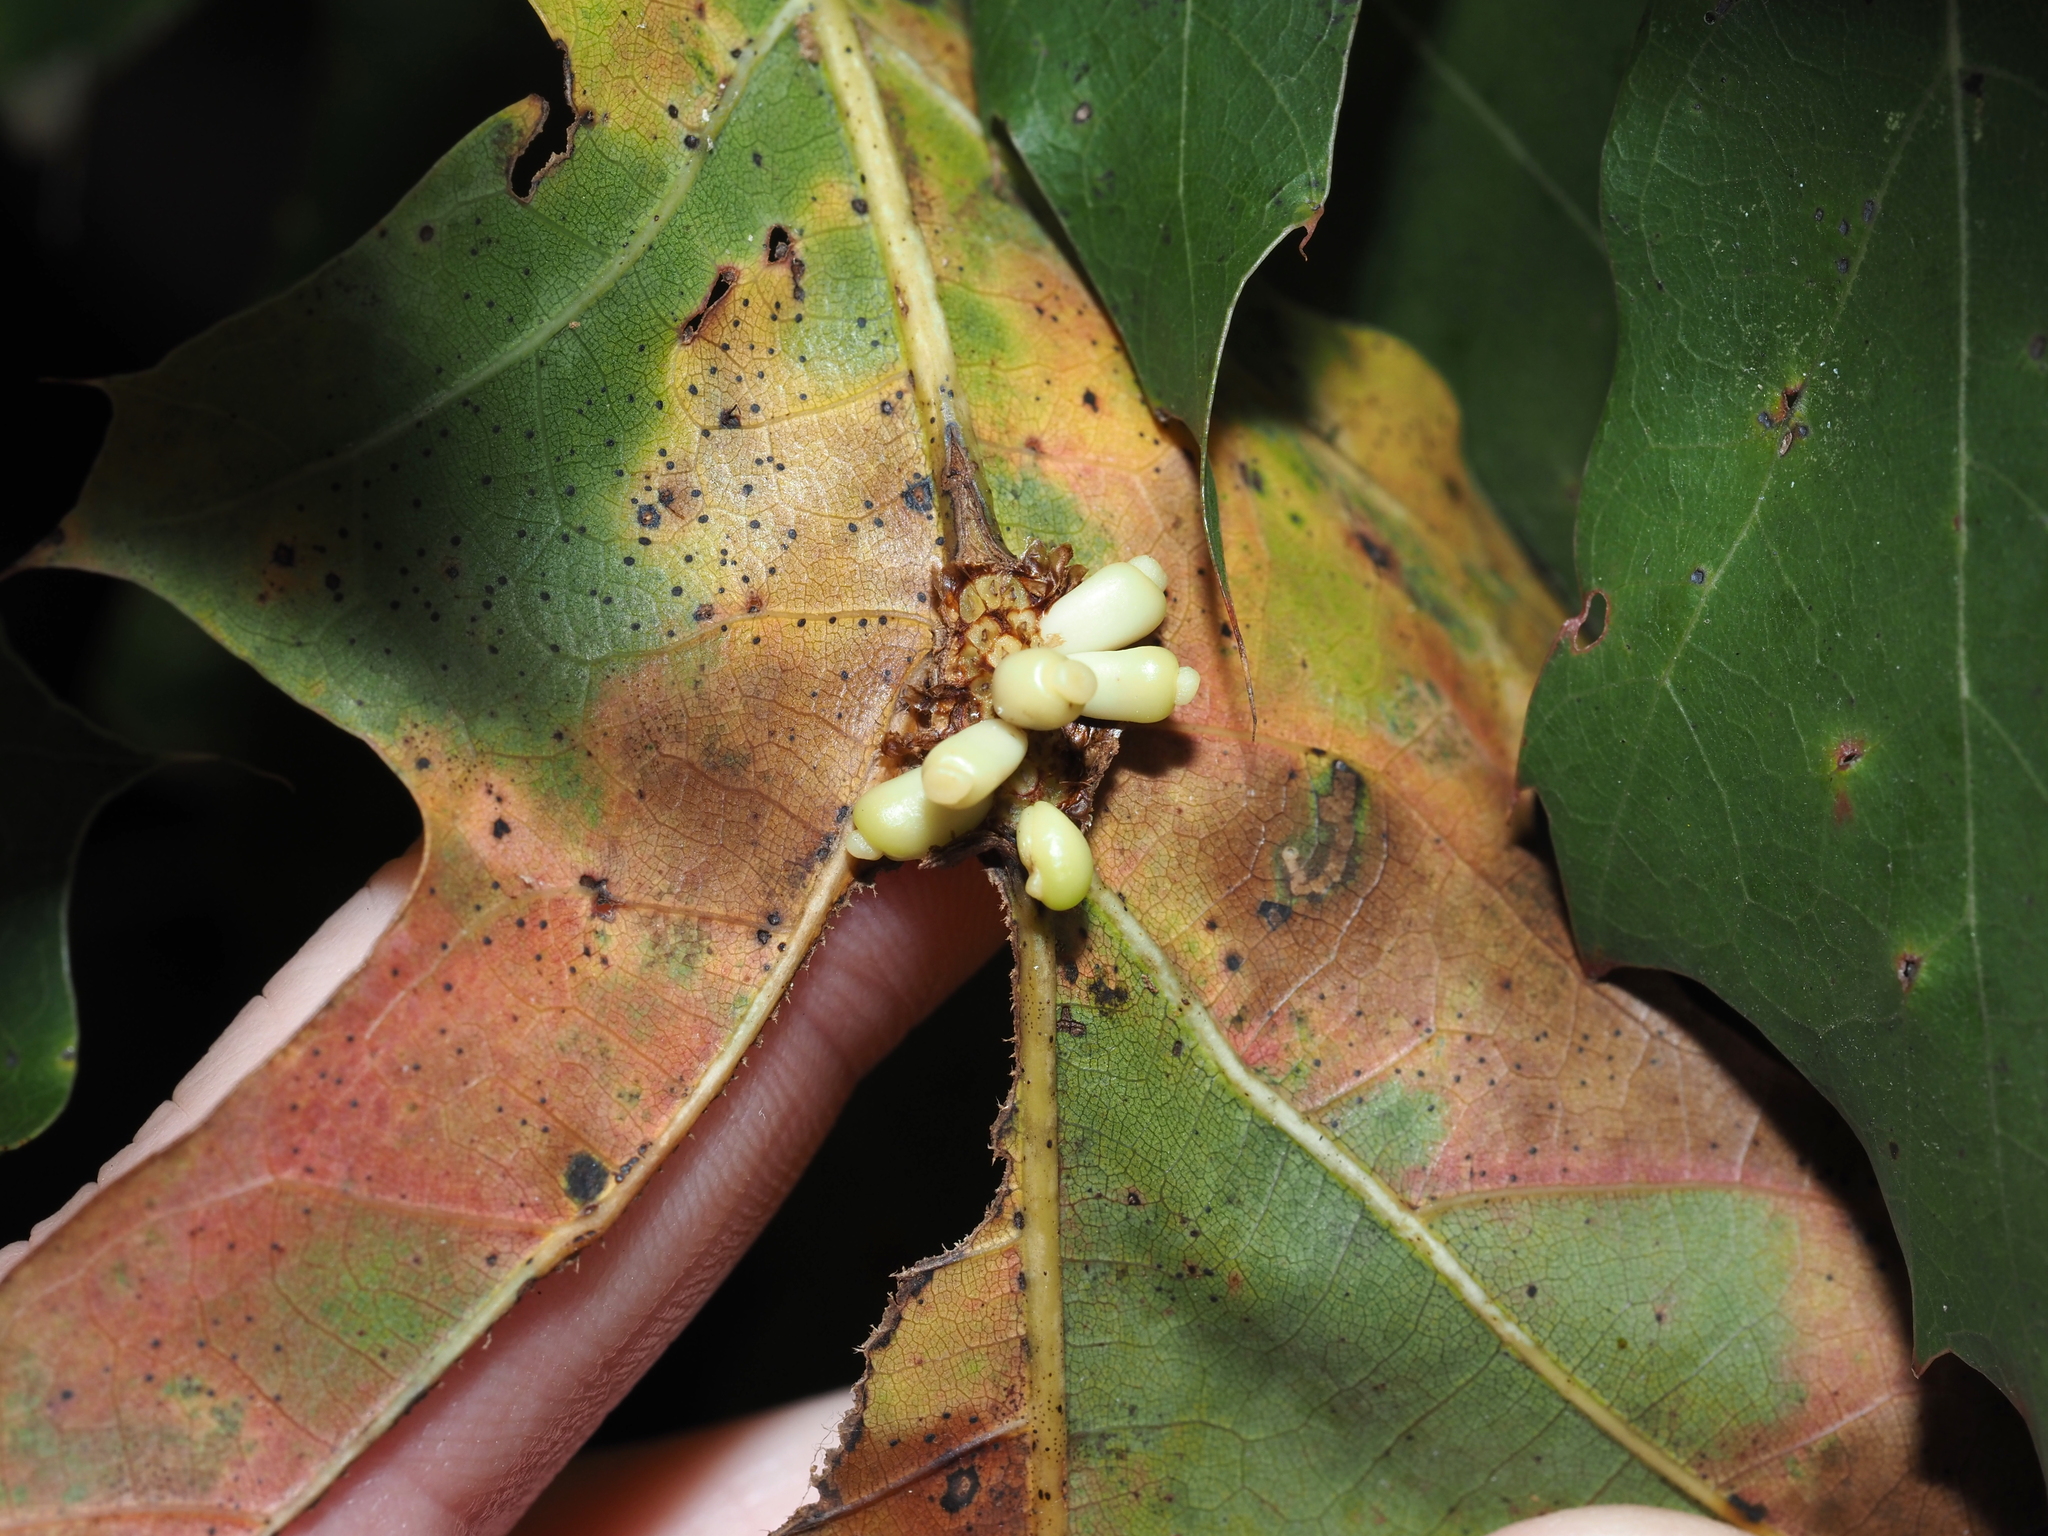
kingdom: Animalia
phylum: Arthropoda
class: Insecta
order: Hymenoptera
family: Cynipidae
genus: Kokkocynips
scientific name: Kokkocynips decidua
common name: Oak wheat gall
